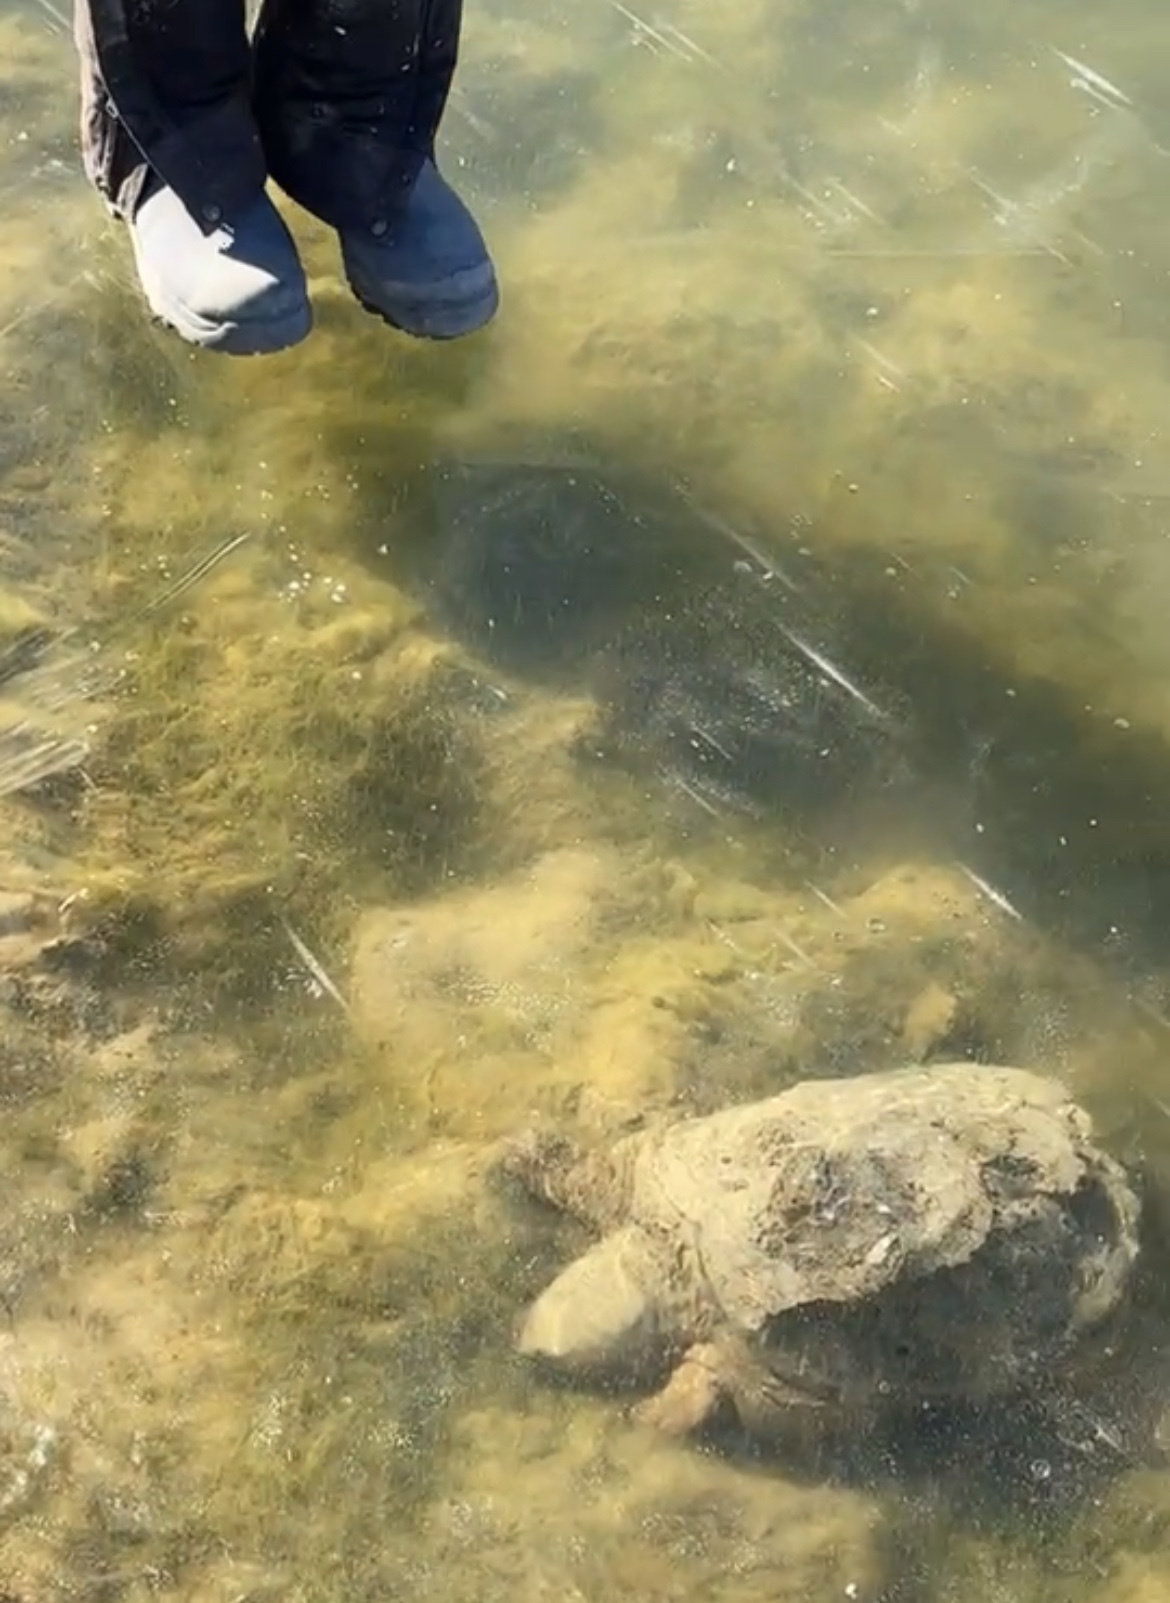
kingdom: Animalia
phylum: Chordata
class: Testudines
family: Chelydridae
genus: Chelydra
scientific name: Chelydra serpentina
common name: Common snapping turtle
